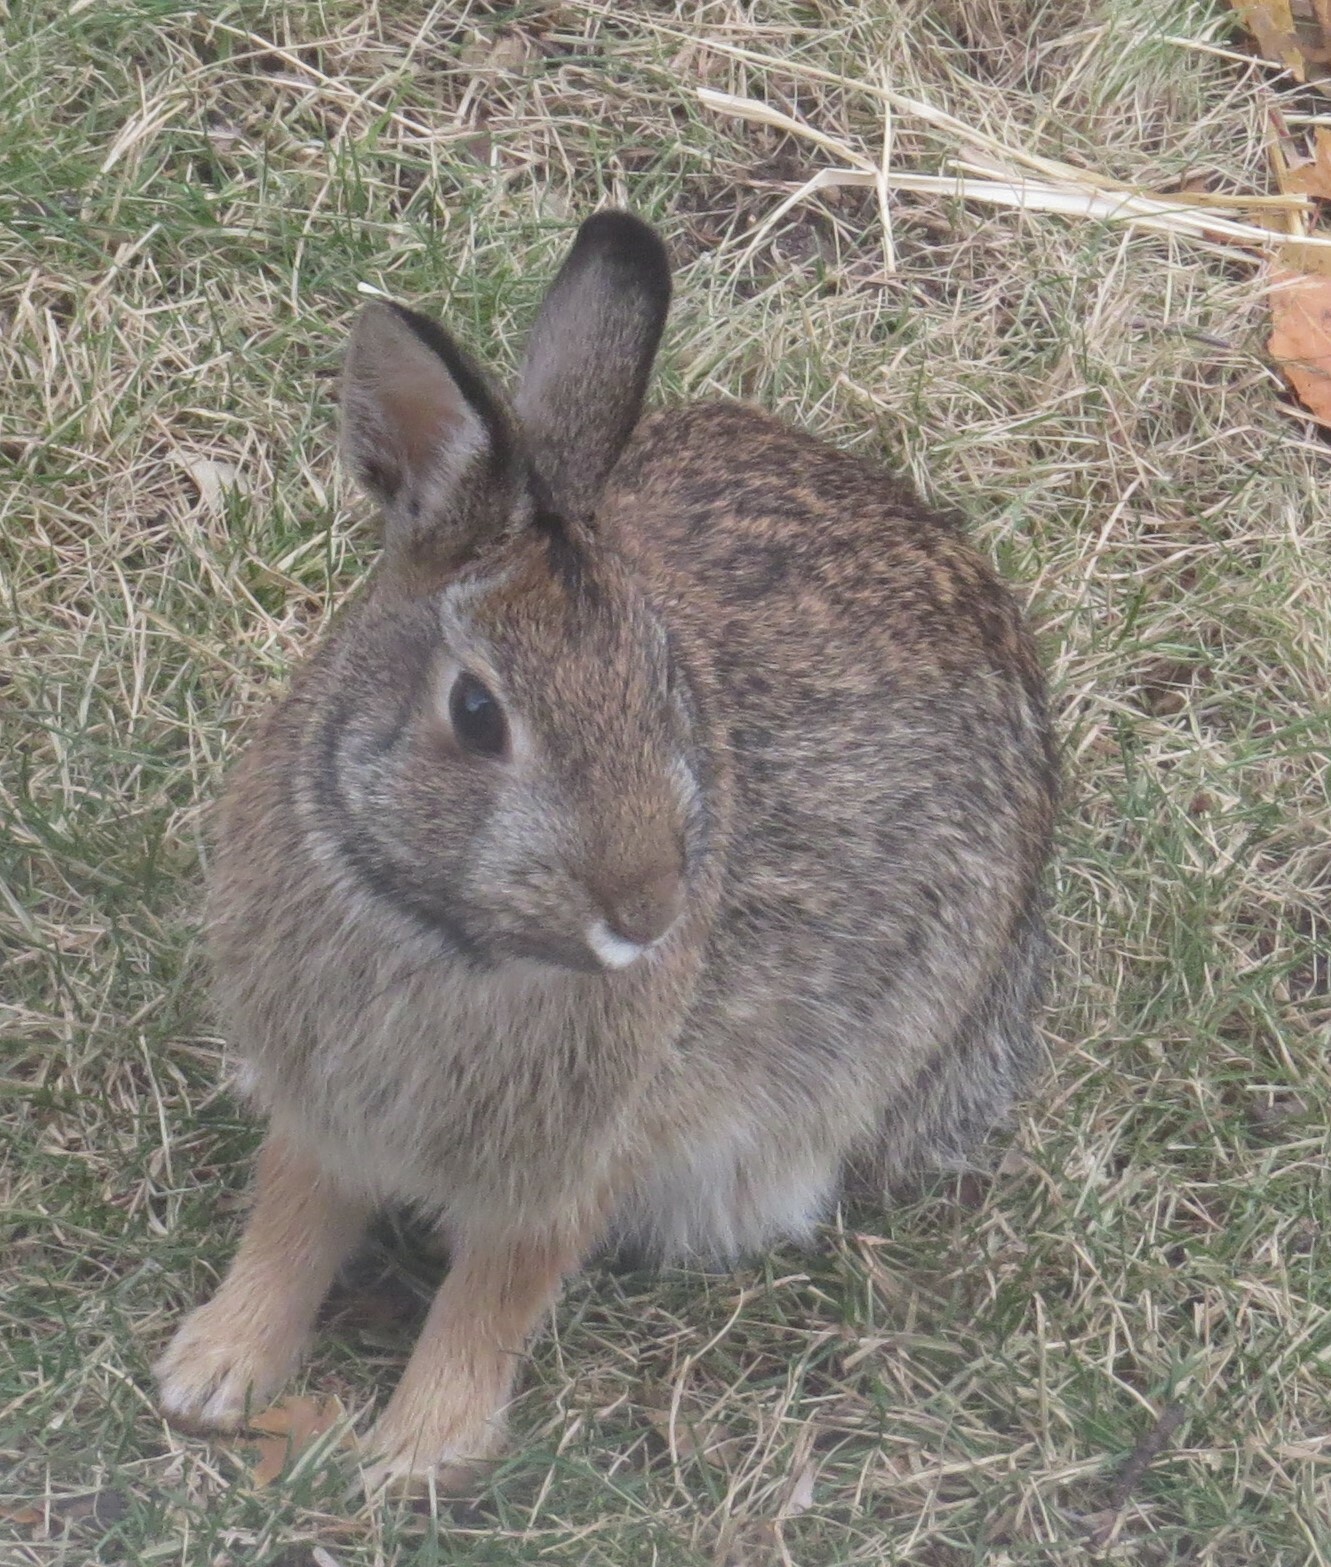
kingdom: Animalia
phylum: Chordata
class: Mammalia
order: Lagomorpha
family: Leporidae
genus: Sylvilagus
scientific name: Sylvilagus floridanus
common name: Eastern cottontail
